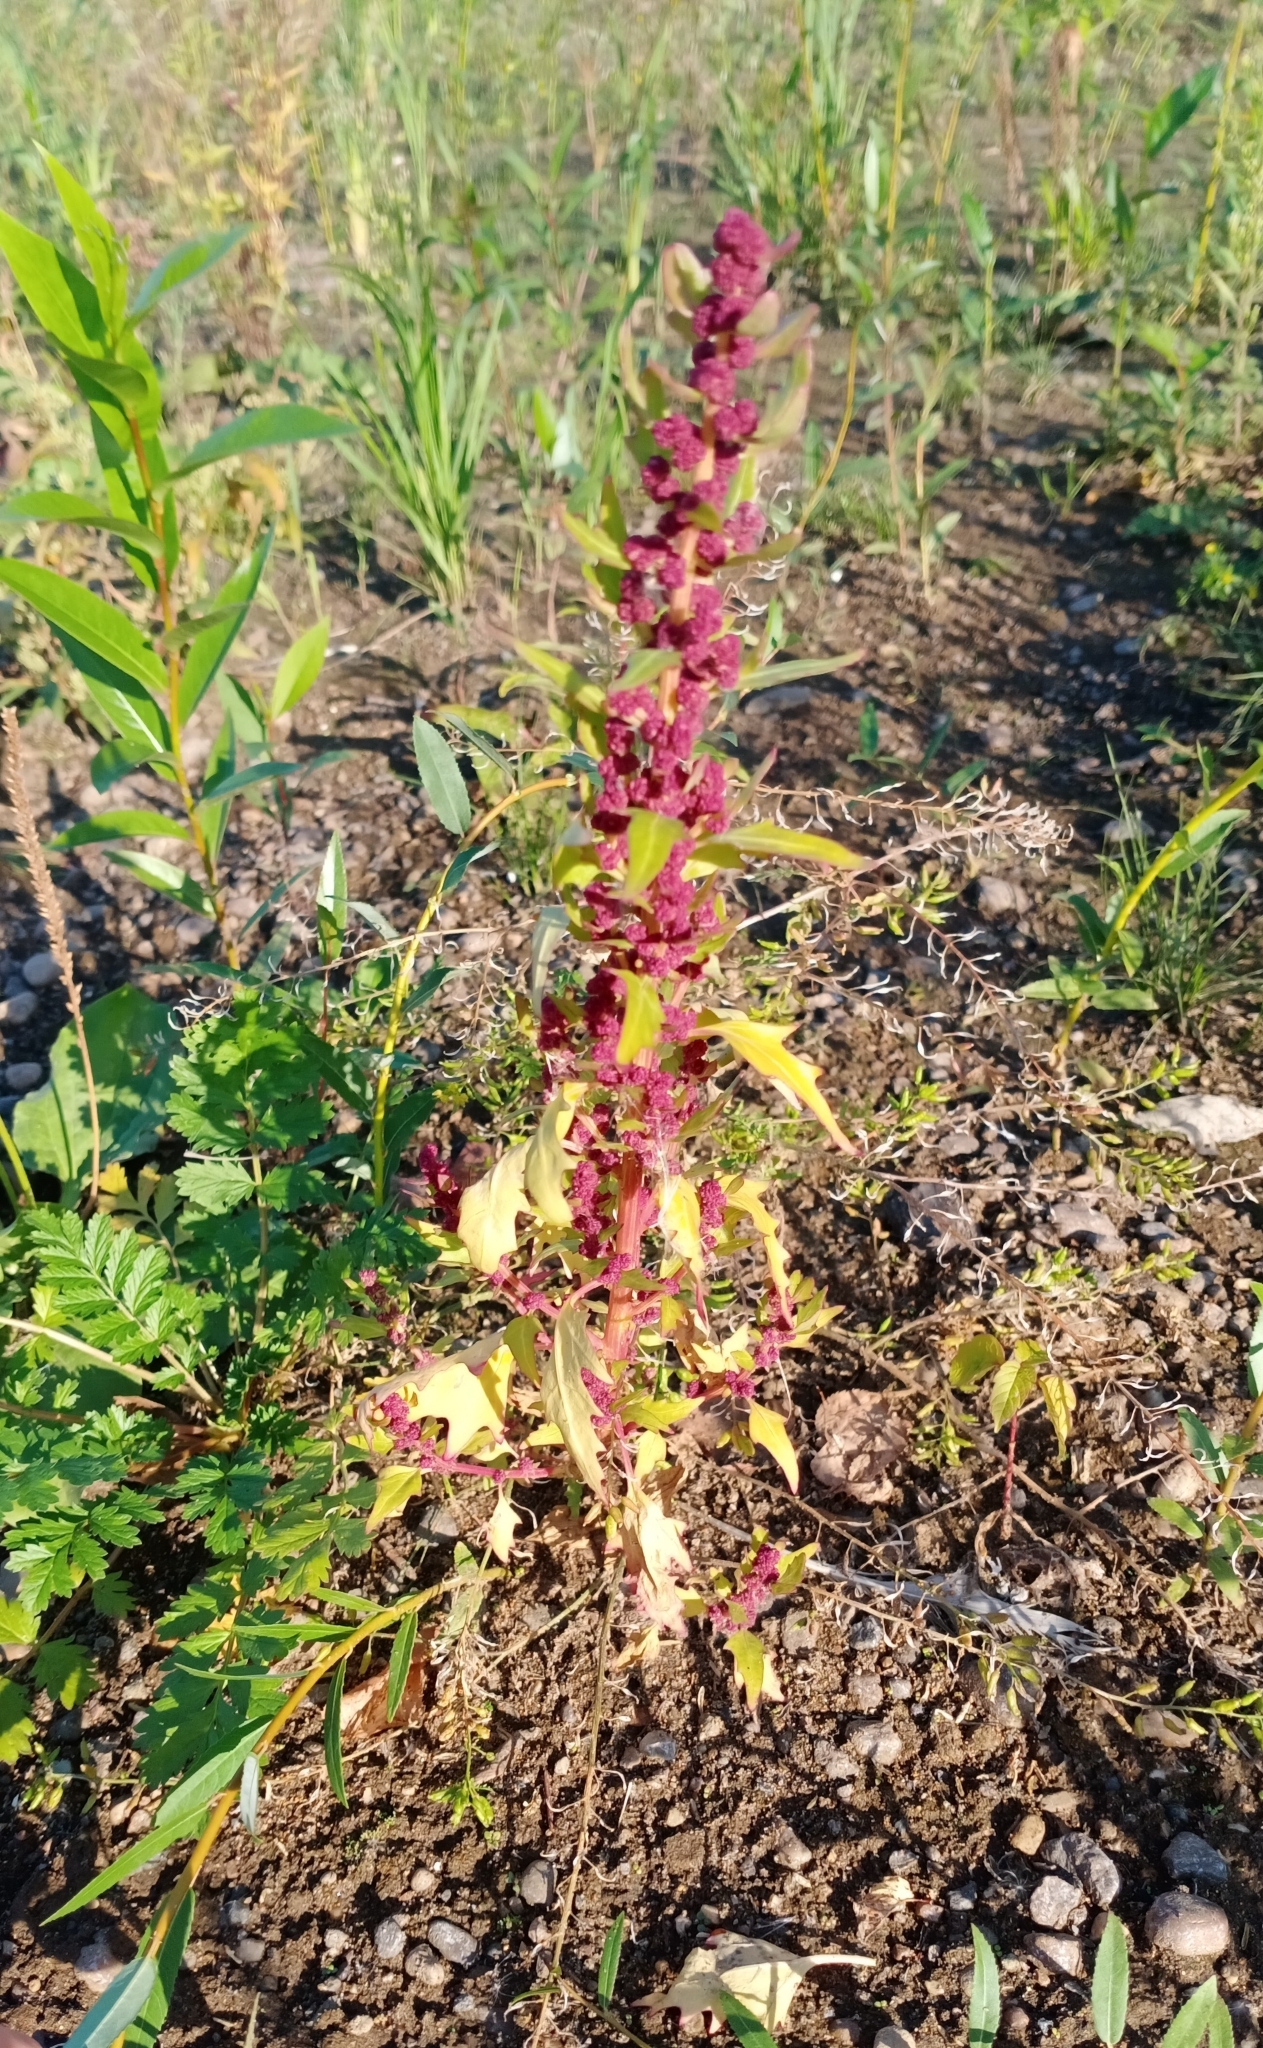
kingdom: Plantae
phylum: Tracheophyta
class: Magnoliopsida
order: Caryophyllales
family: Amaranthaceae
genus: Oxybasis
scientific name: Oxybasis rubra
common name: Red goosefoot
